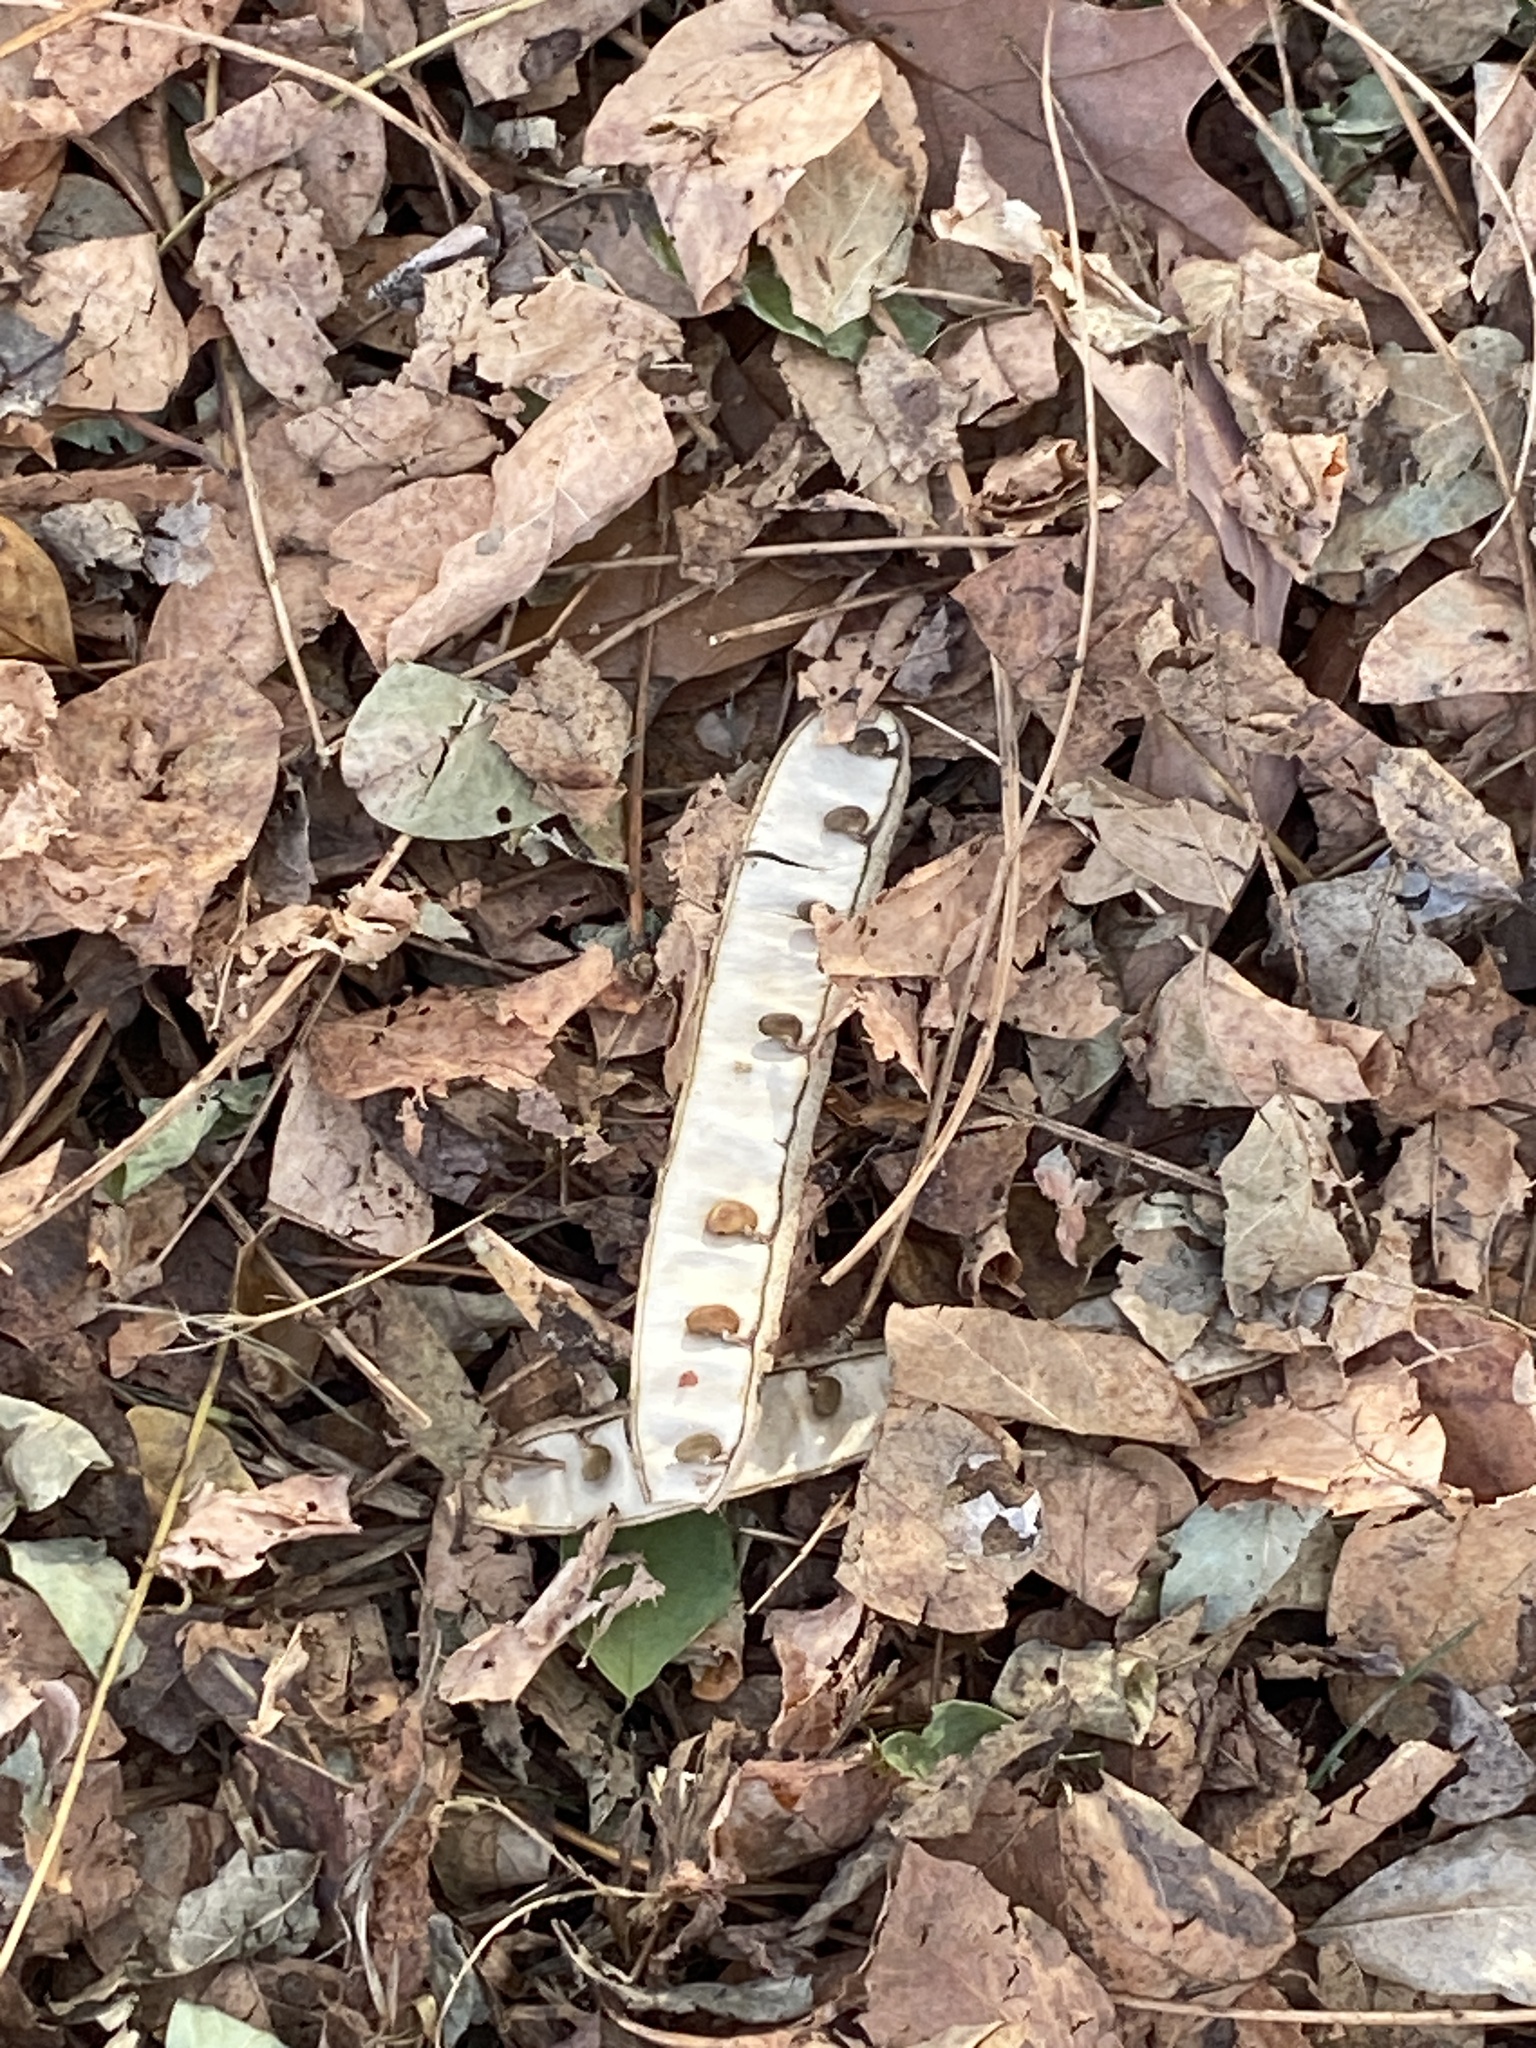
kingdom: Plantae
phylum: Tracheophyta
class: Magnoliopsida
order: Fabales
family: Fabaceae
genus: Robinia
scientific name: Robinia pseudoacacia
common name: Black locust
